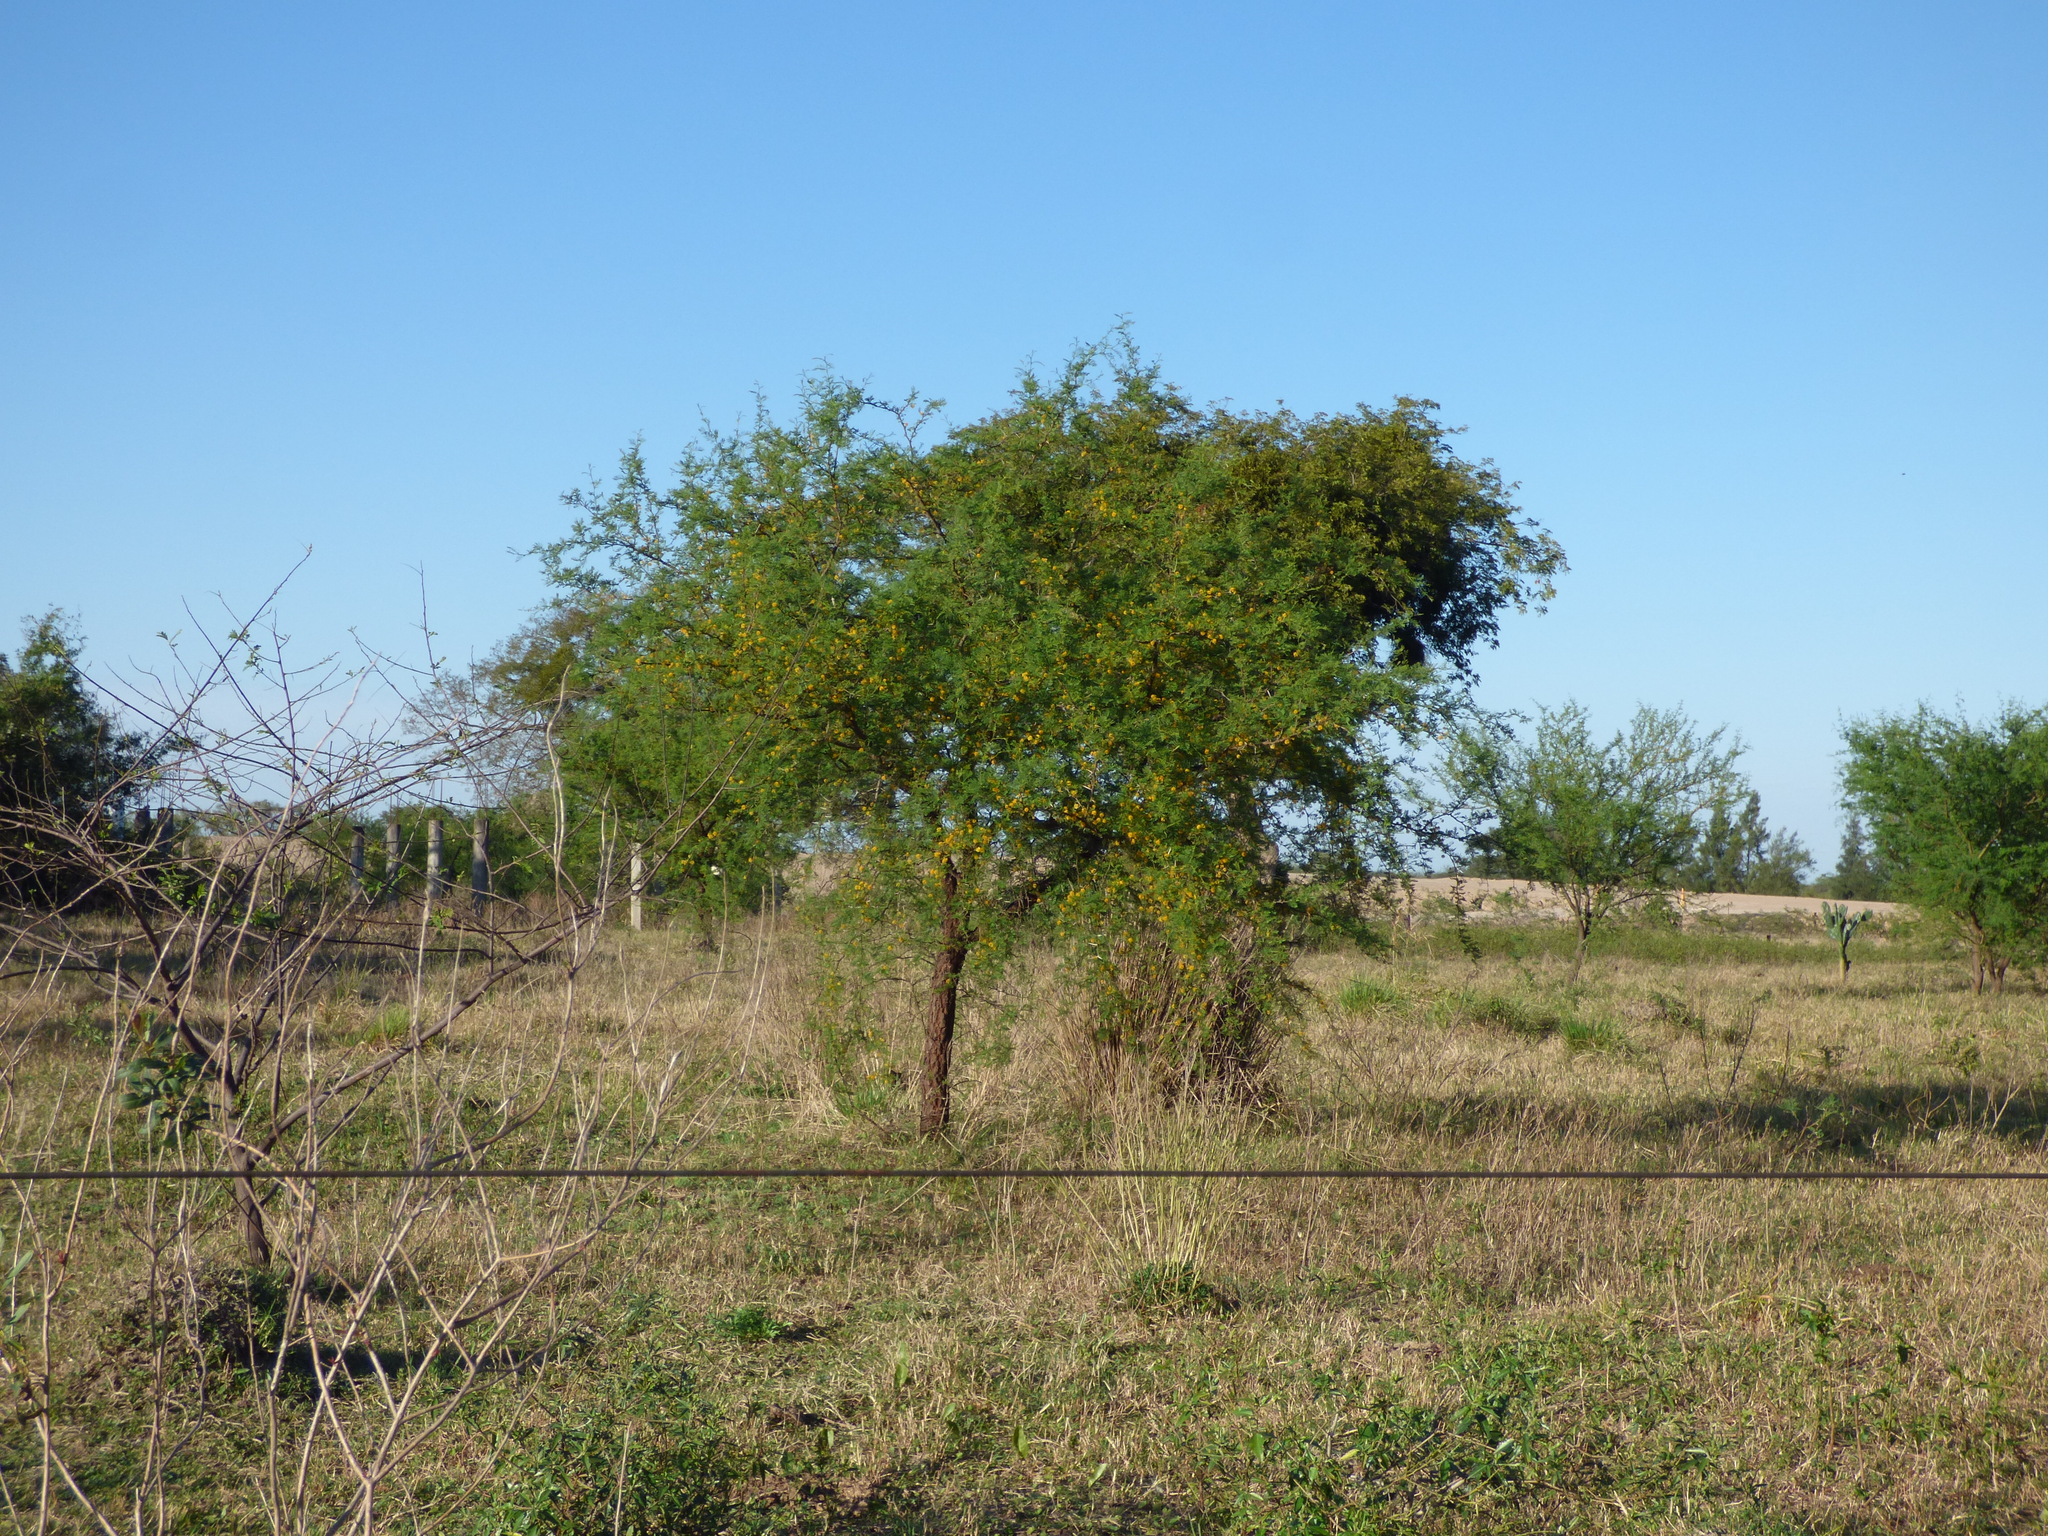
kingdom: Plantae
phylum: Tracheophyta
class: Magnoliopsida
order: Fabales
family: Fabaceae
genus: Vachellia
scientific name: Vachellia caven
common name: Roman cassie
